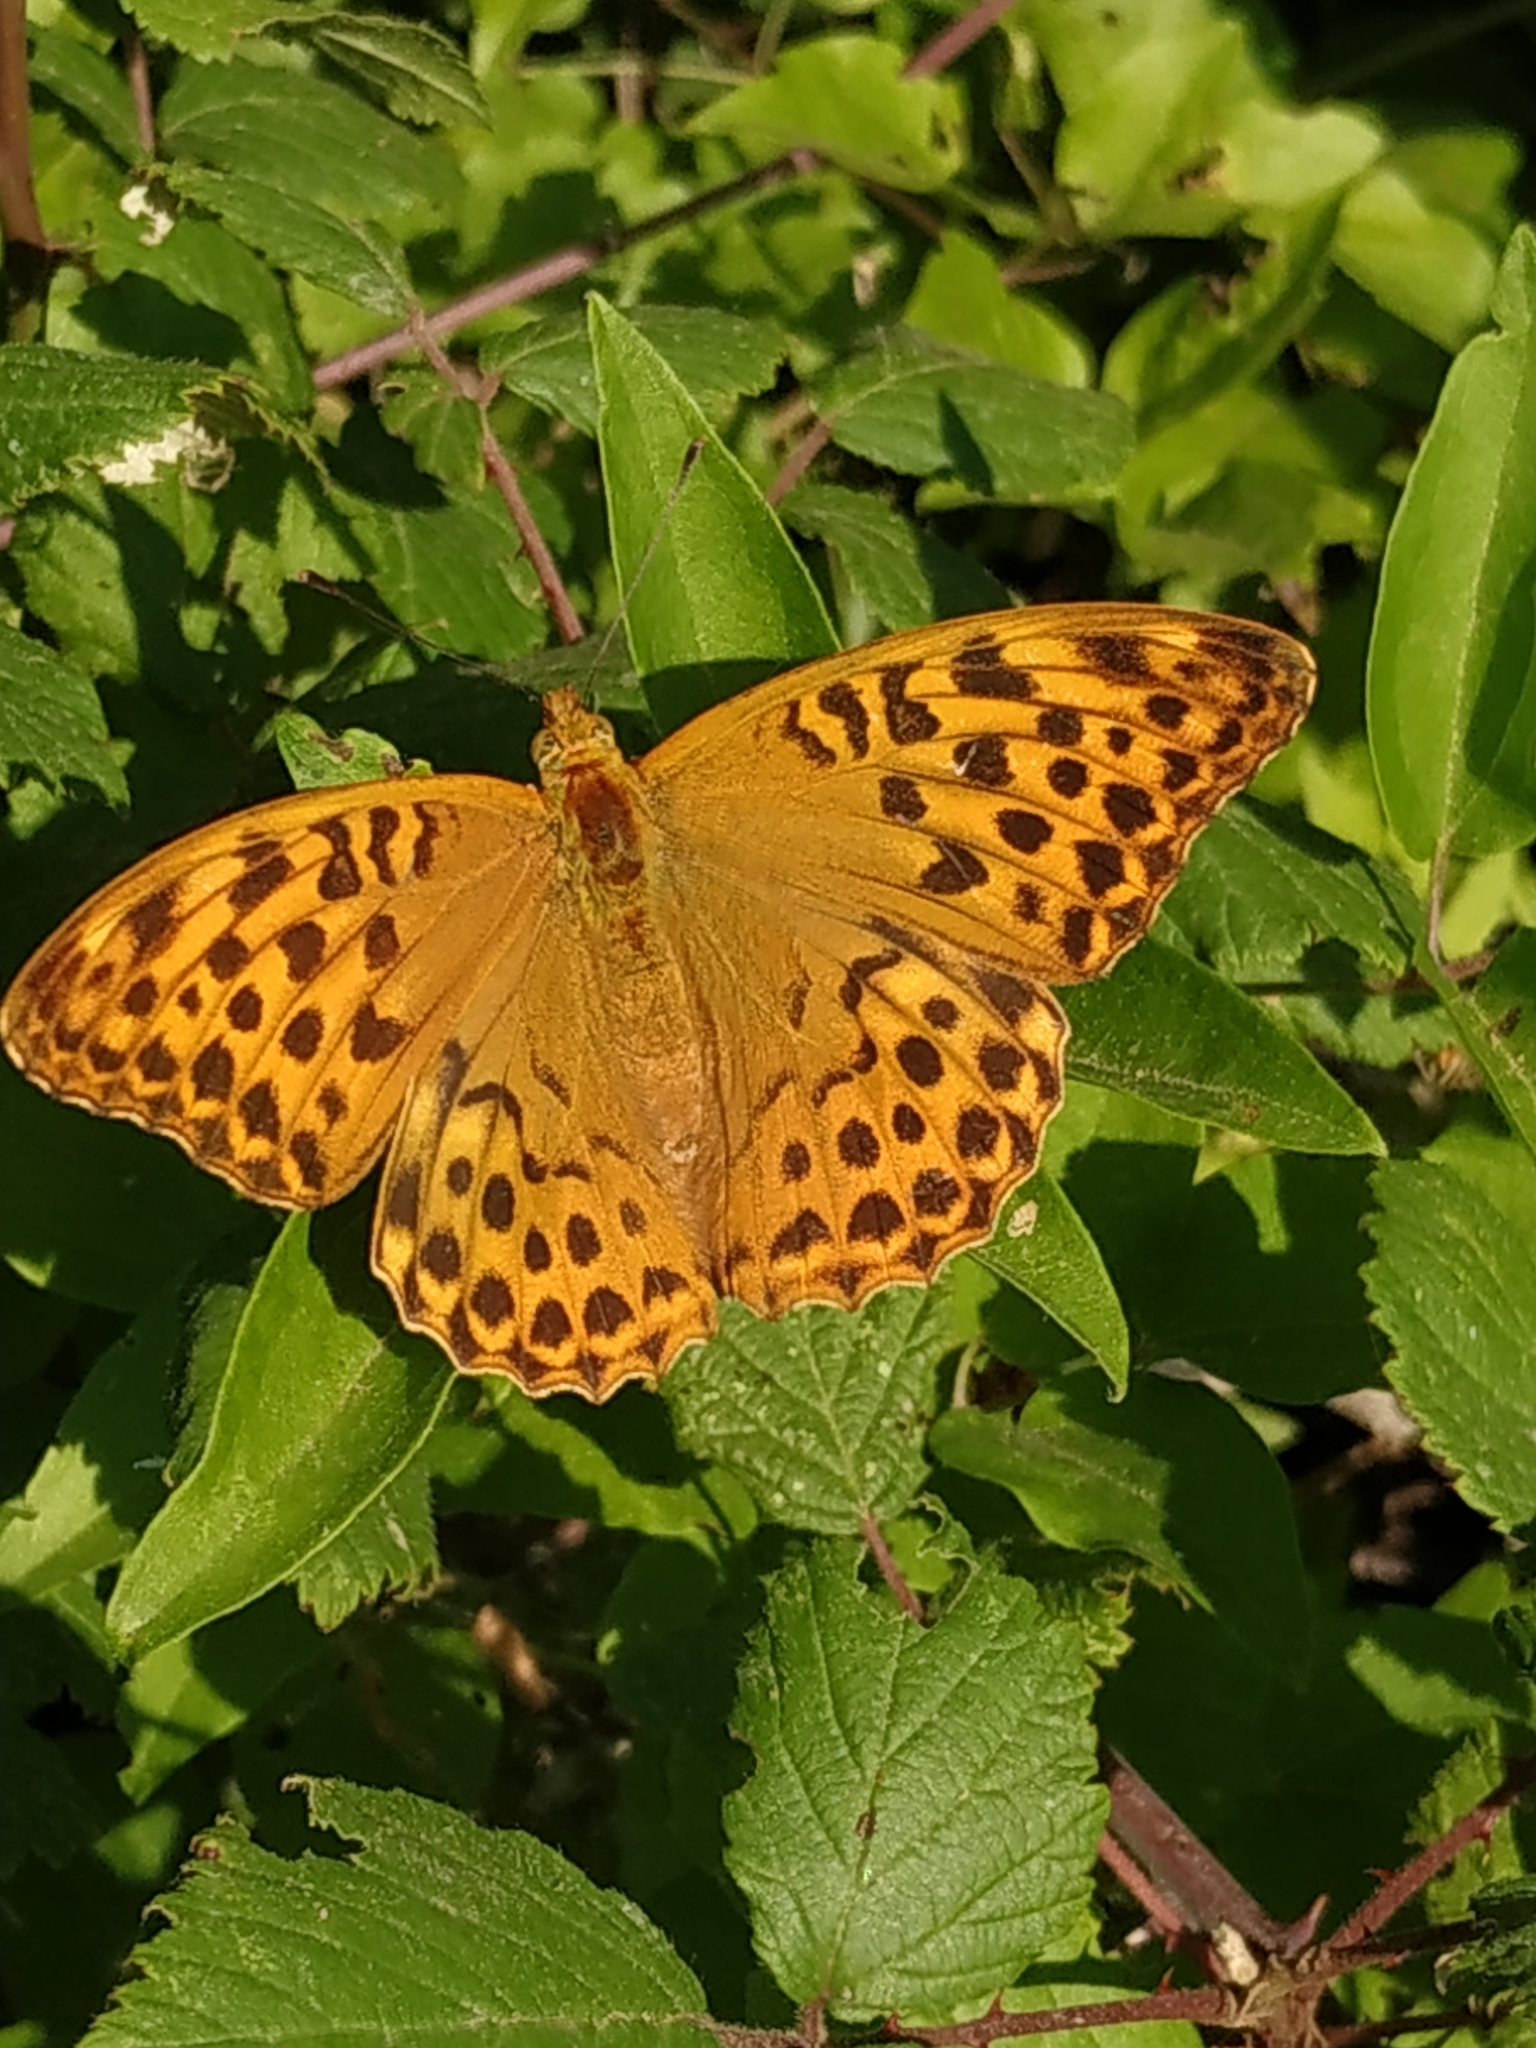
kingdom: Animalia
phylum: Arthropoda
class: Insecta
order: Lepidoptera
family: Nymphalidae
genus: Argynnis
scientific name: Argynnis paphia
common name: Silver-washed fritillary
